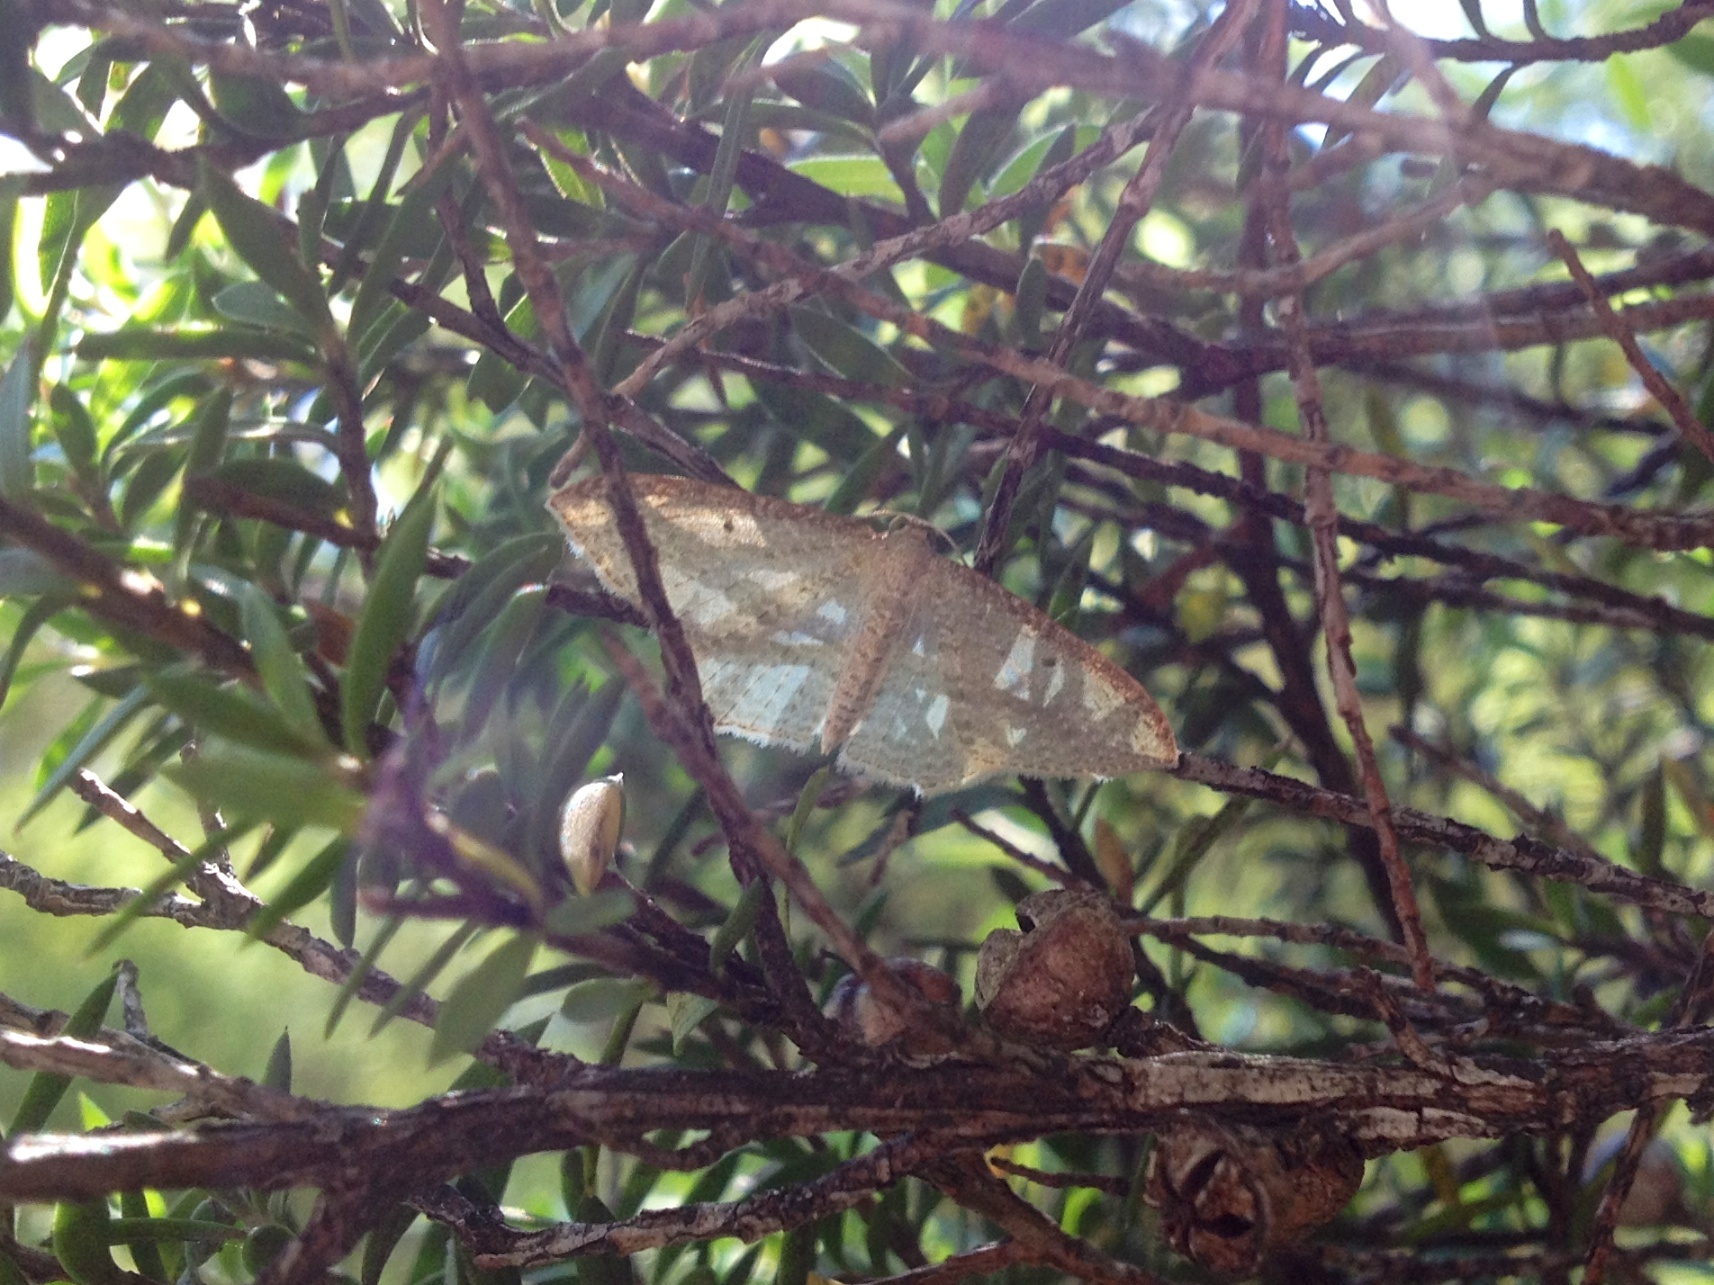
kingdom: Animalia
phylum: Arthropoda
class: Insecta
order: Lepidoptera
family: Geometridae
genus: Poecilasthena
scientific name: Poecilasthena pulchraria
